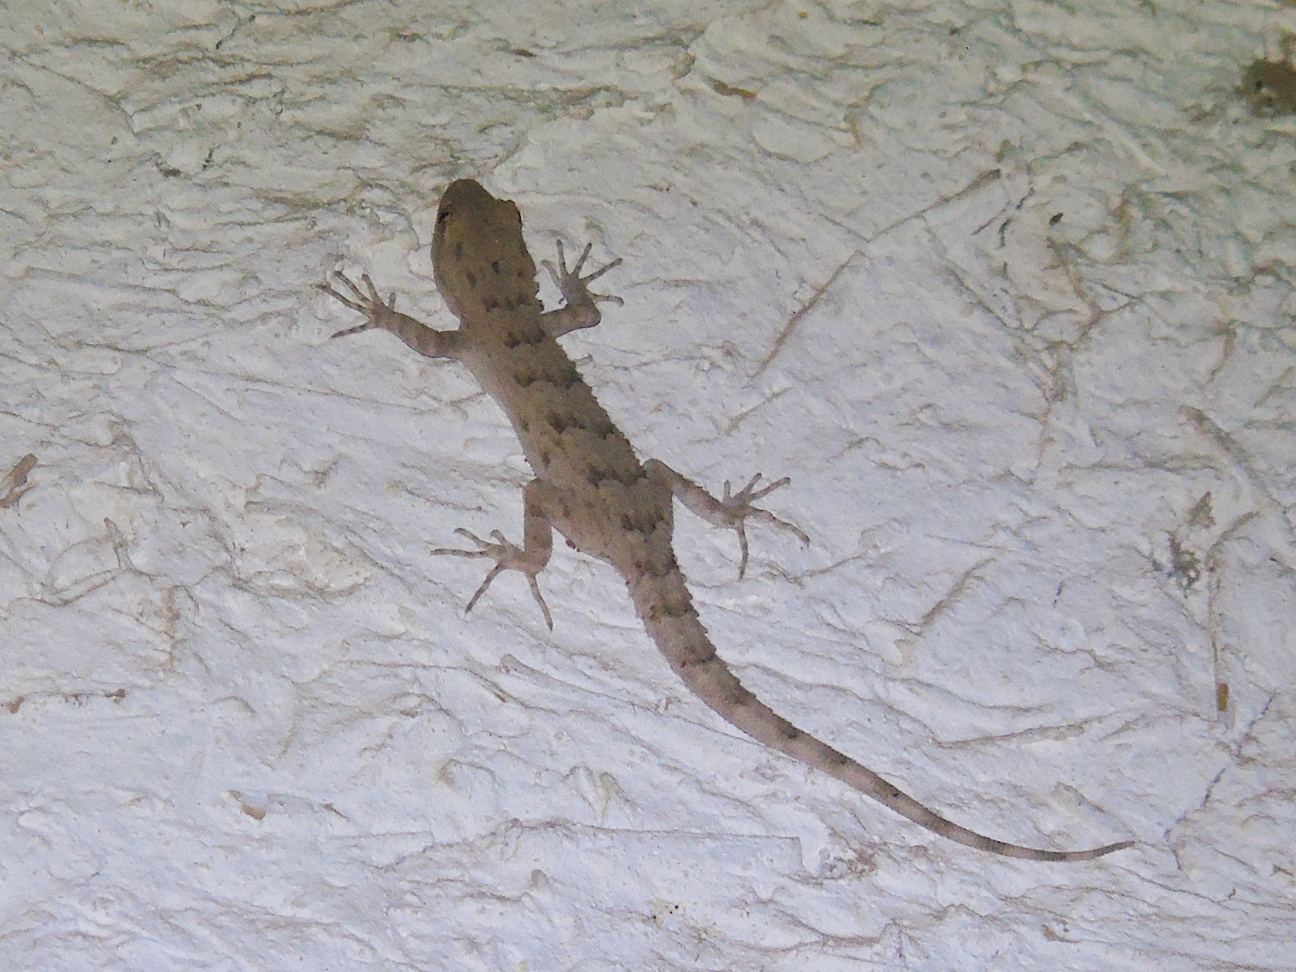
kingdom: Animalia
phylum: Chordata
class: Squamata
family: Gekkonidae
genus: Mediodactylus
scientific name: Mediodactylus russowii
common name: Grey thin-toed gecko
